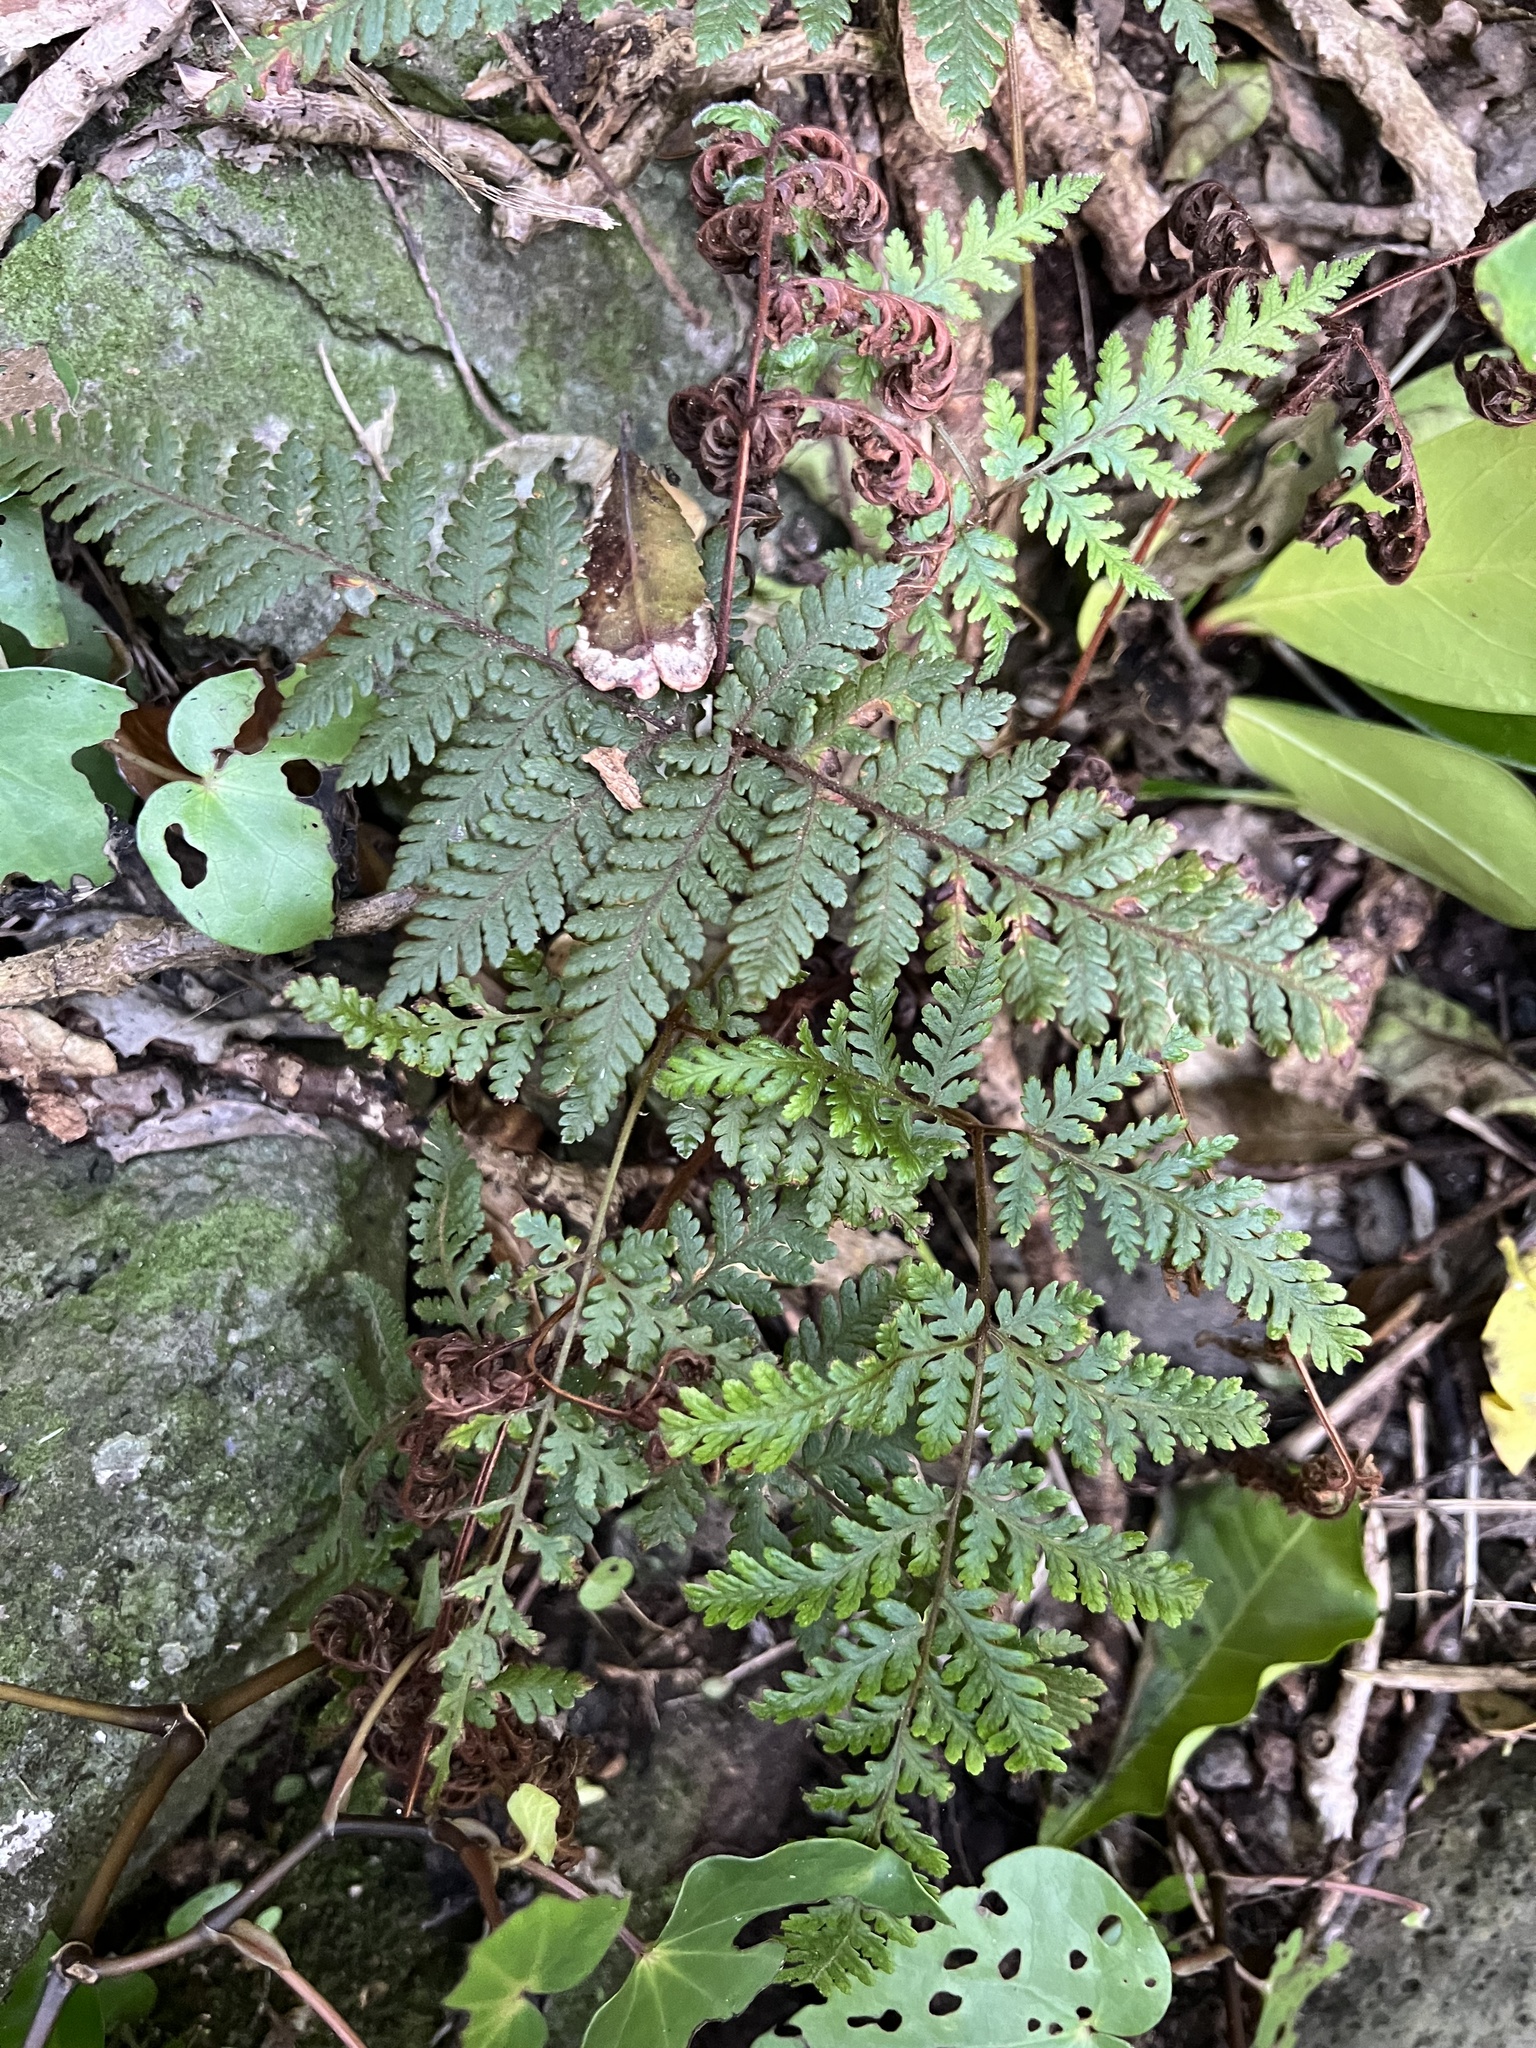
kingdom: Plantae
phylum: Tracheophyta
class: Polypodiopsida
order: Polypodiales
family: Dryopteridaceae
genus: Lastreopsis
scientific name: Lastreopsis velutina
